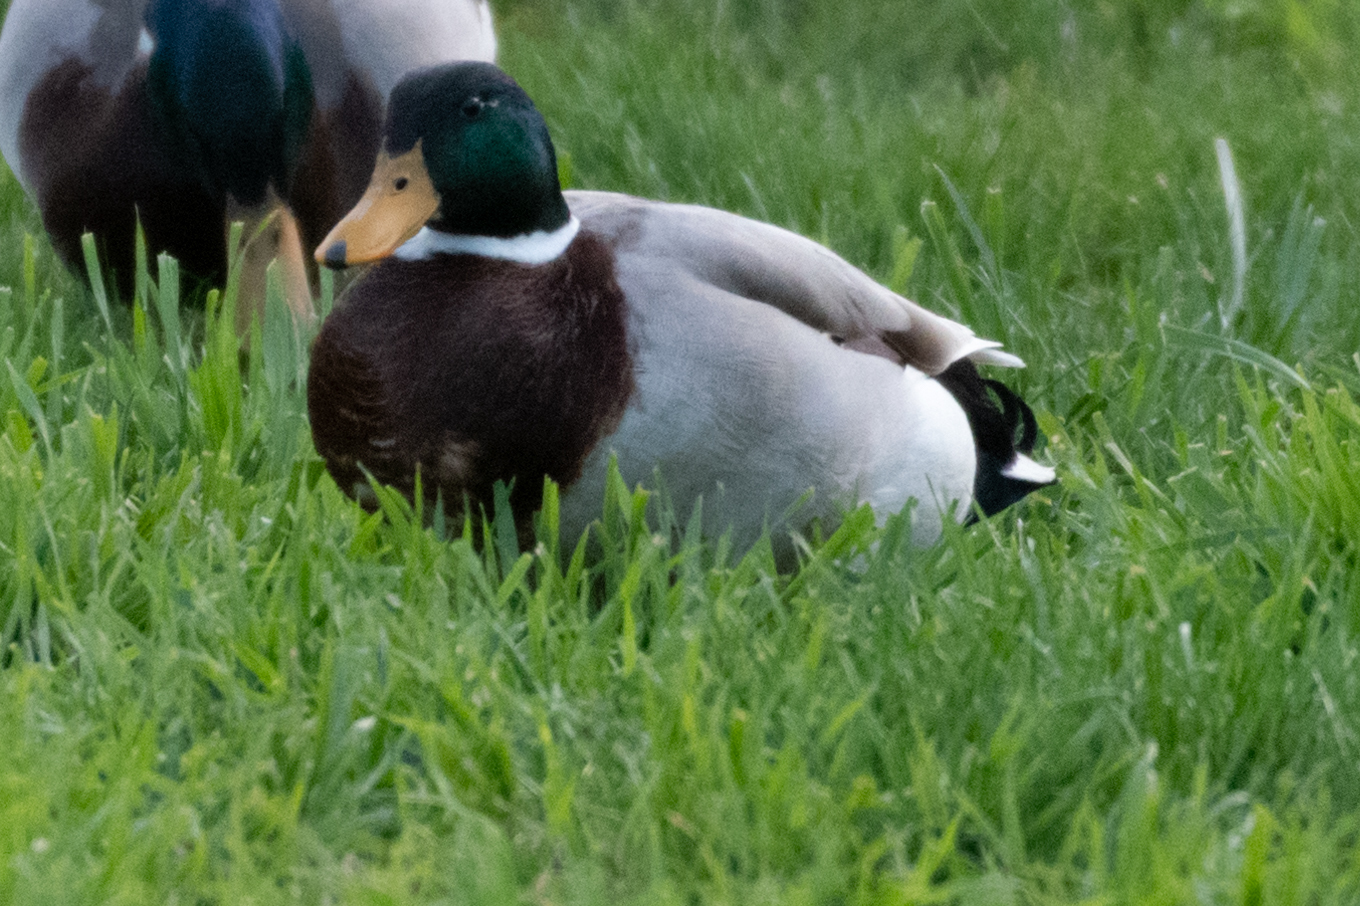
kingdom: Animalia
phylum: Chordata
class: Aves
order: Anseriformes
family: Anatidae
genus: Anas
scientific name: Anas platyrhynchos
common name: Mallard
